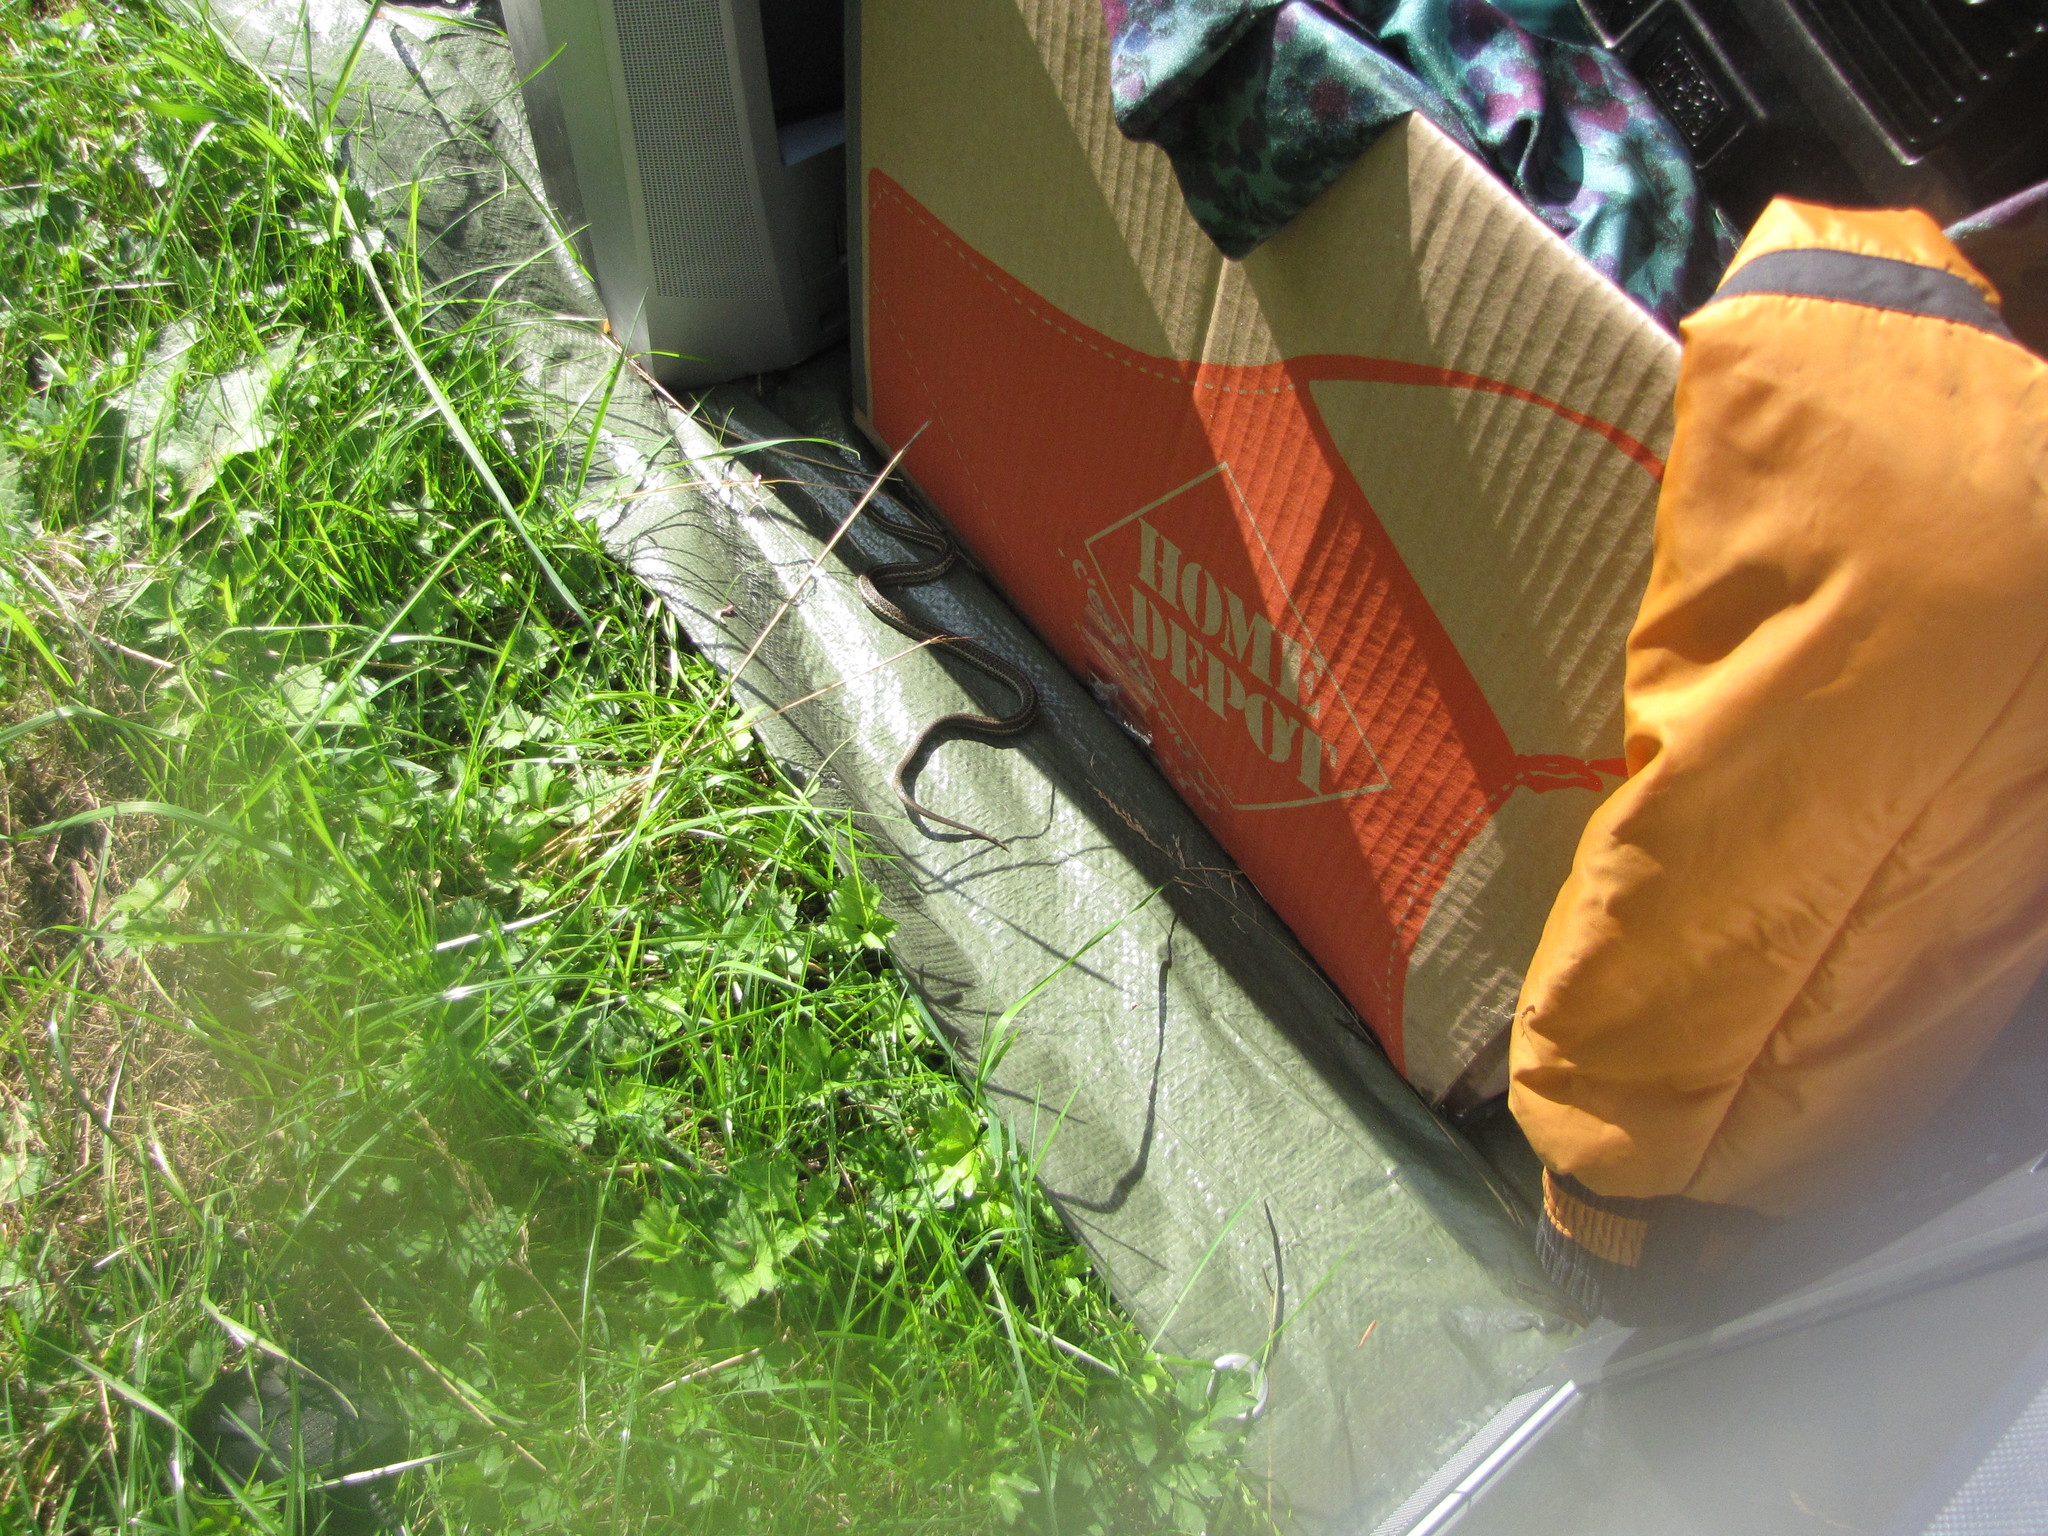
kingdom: Animalia
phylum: Chordata
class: Squamata
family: Colubridae
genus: Thamnophis
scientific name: Thamnophis ordinoides
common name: Northwestern garter snake
